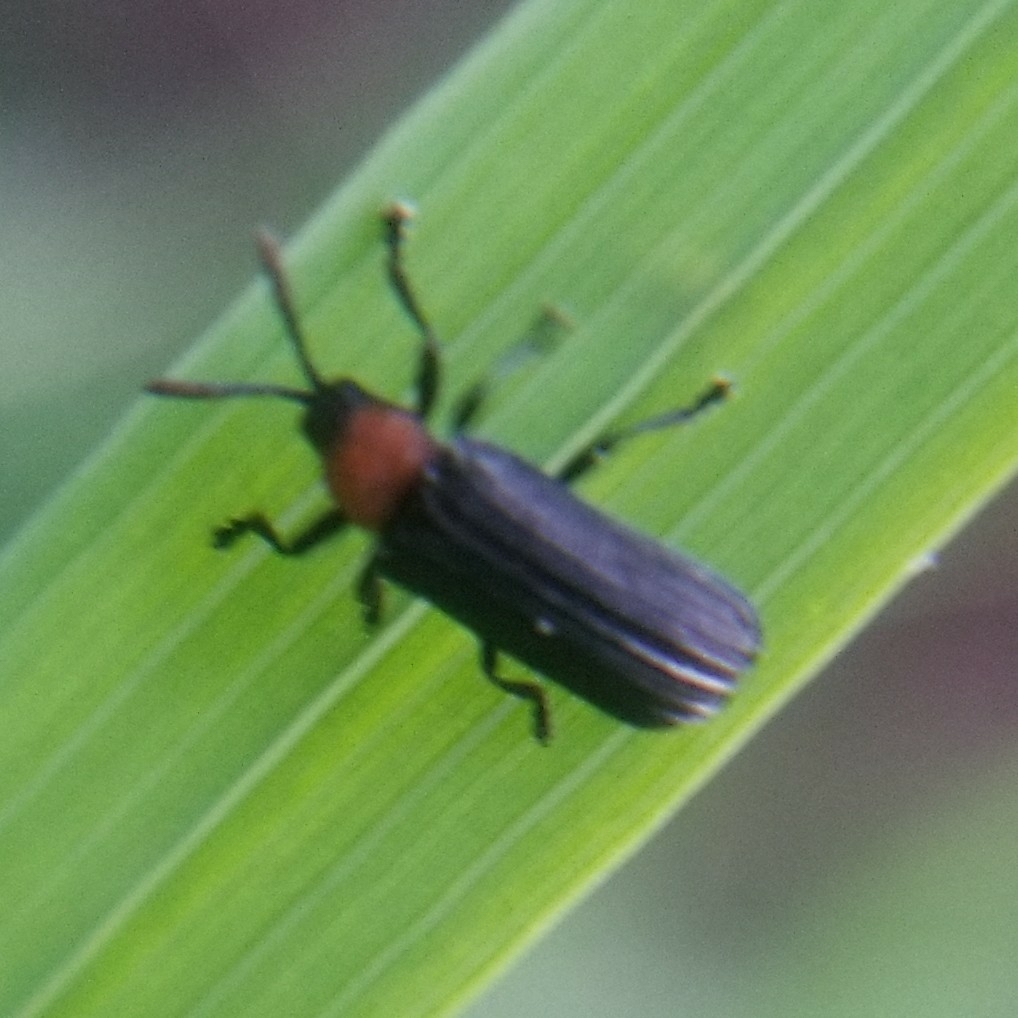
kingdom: Animalia
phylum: Arthropoda
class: Insecta
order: Coleoptera
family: Chrysomelidae
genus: Chalepus
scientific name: Chalepus walshii
